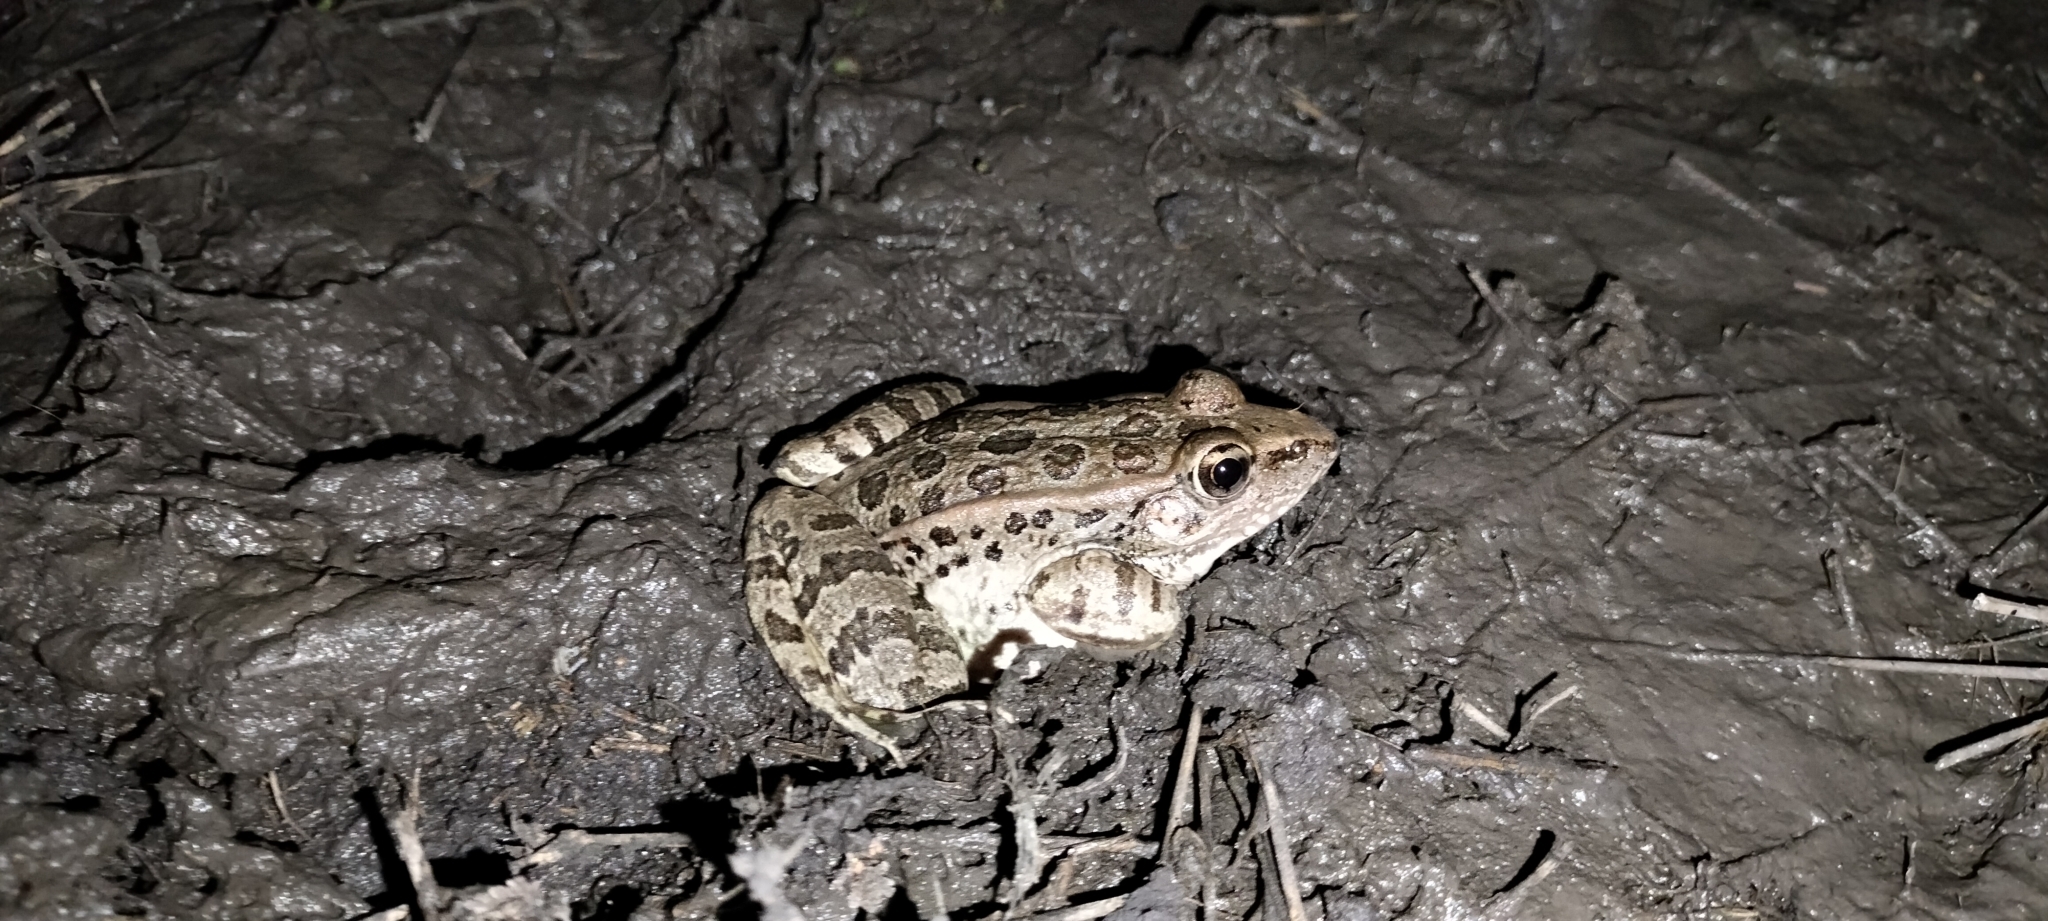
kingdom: Animalia
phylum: Chordata
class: Amphibia
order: Anura
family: Ranidae
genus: Lithobates
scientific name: Lithobates berlandieri
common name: Rio grande leopard frog
